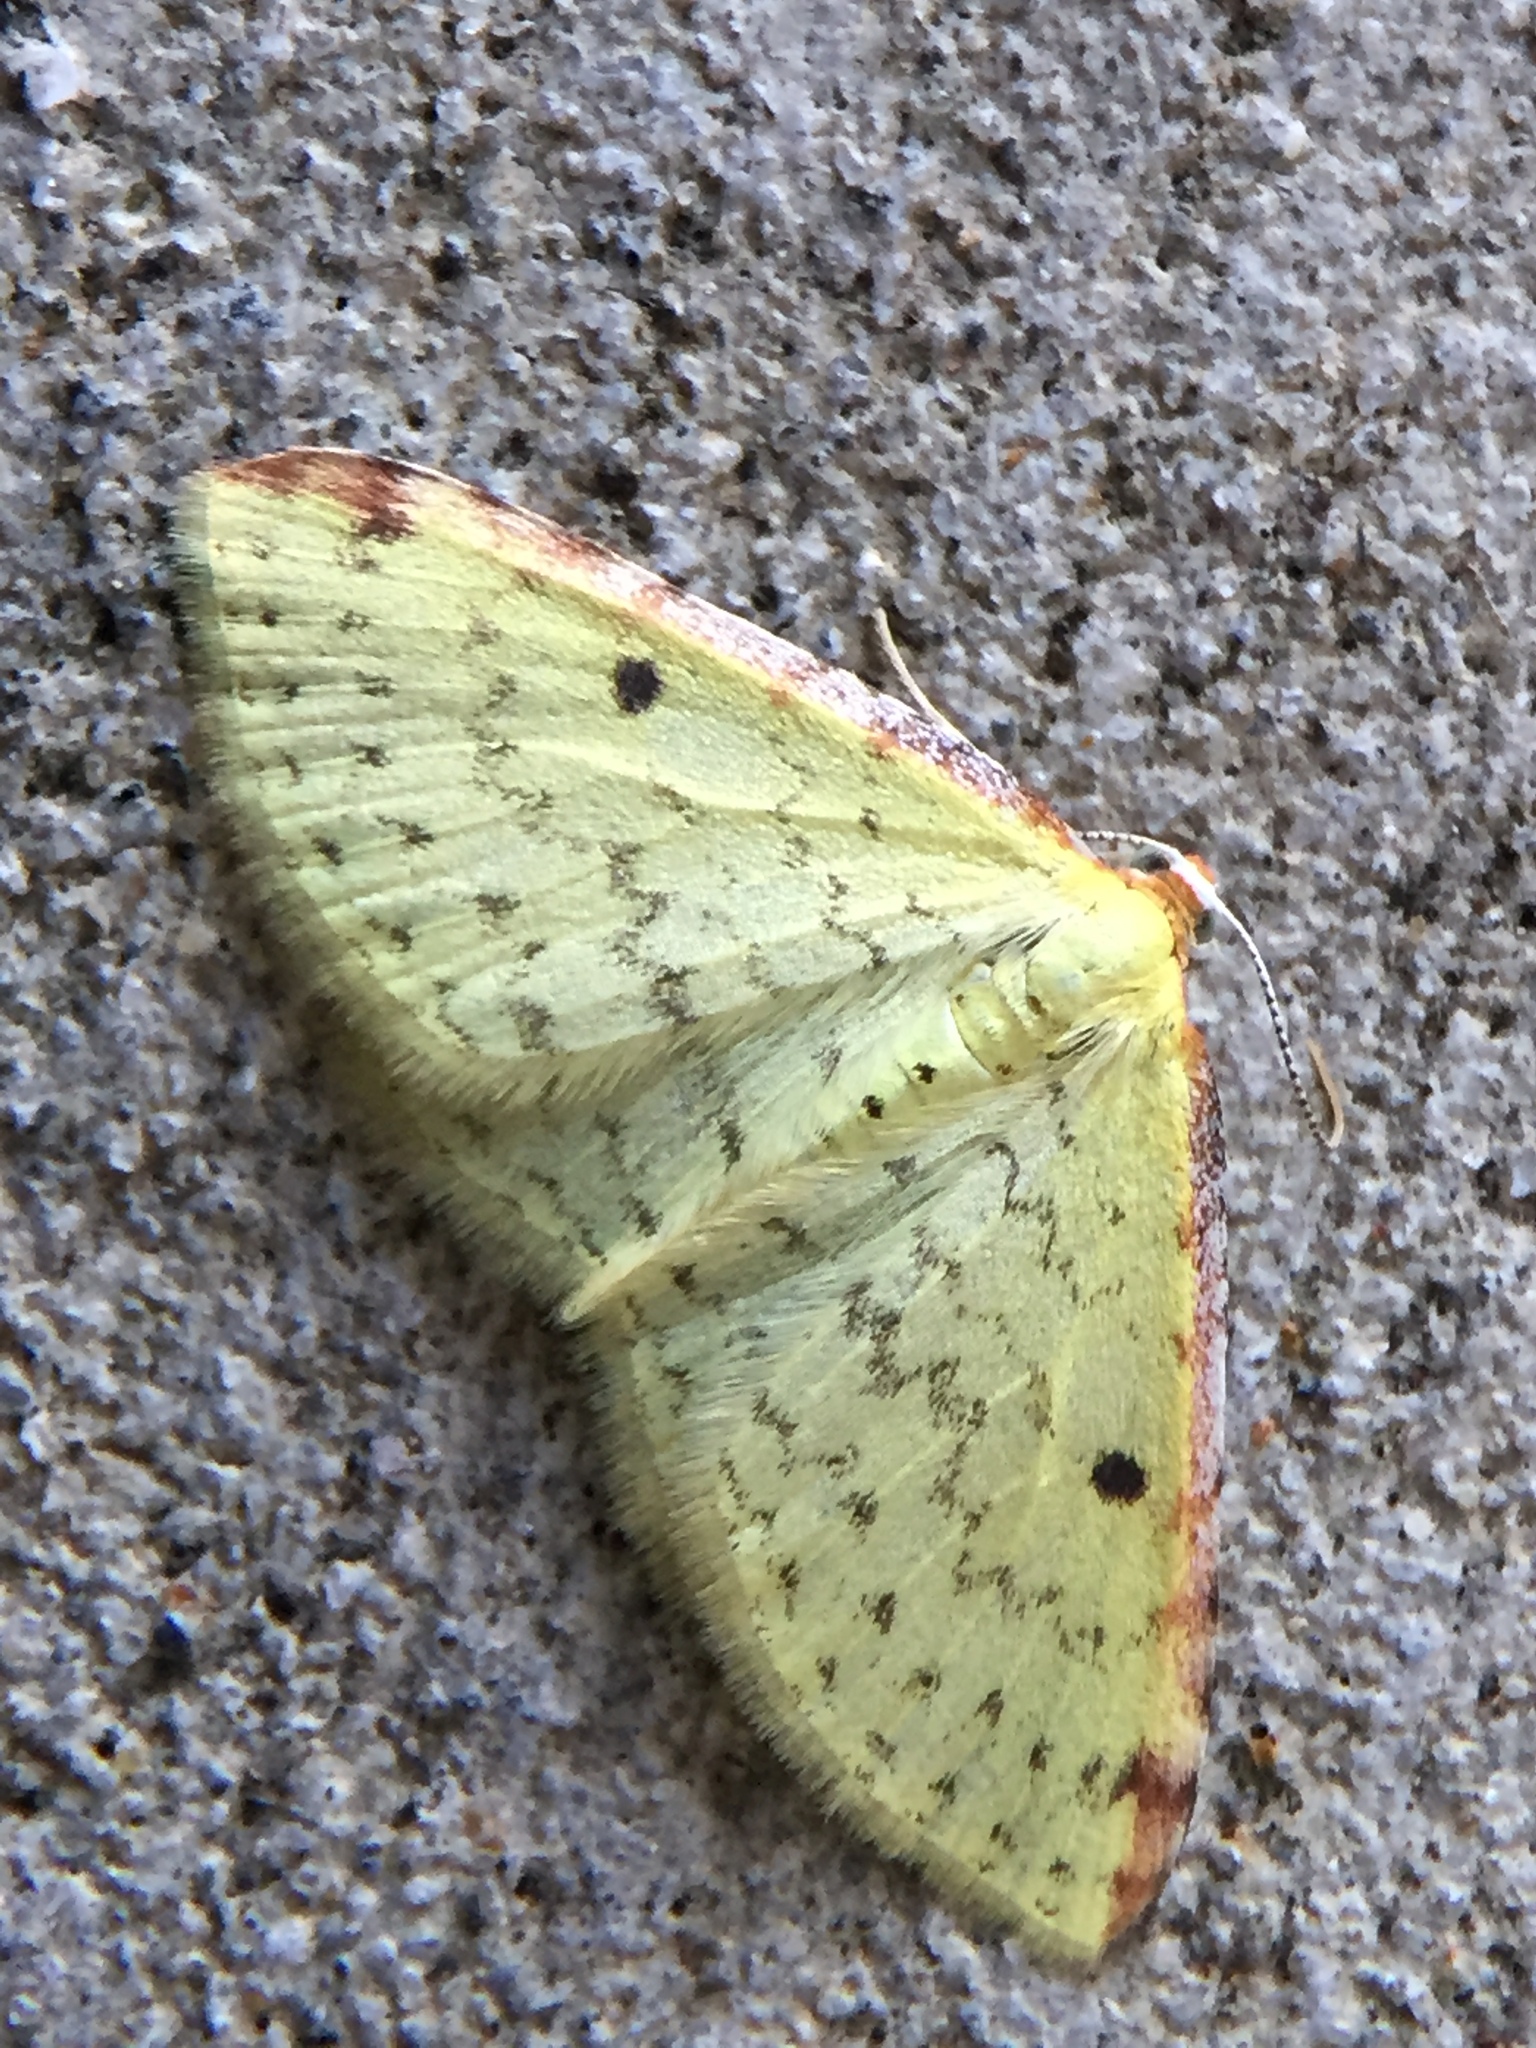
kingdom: Animalia
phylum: Arthropoda
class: Insecta
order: Lepidoptera
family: Geometridae
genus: Epiphryne
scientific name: Epiphryne undosata
